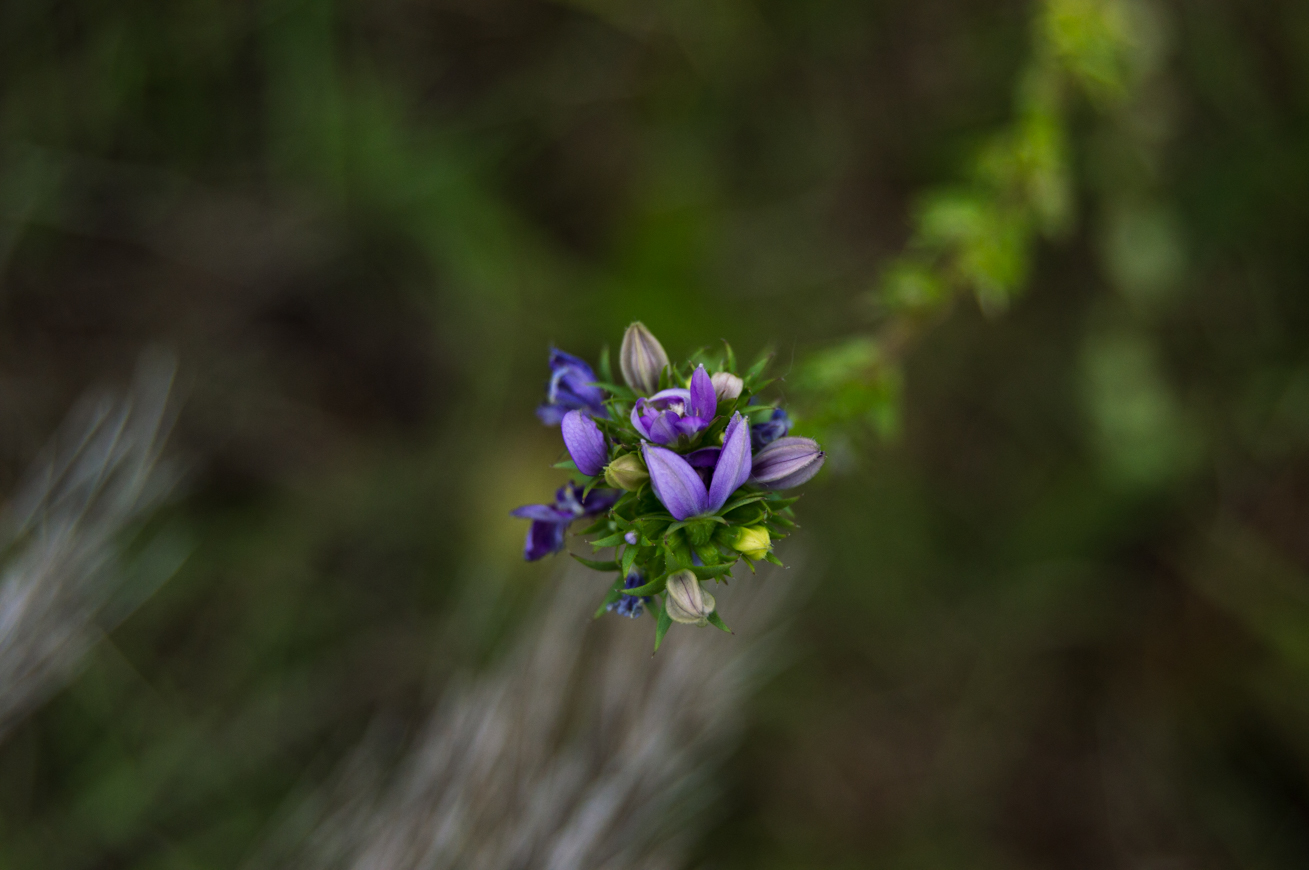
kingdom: Plantae
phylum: Tracheophyta
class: Magnoliopsida
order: Asterales
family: Campanulaceae
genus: Triodanis
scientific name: Triodanis biflora
